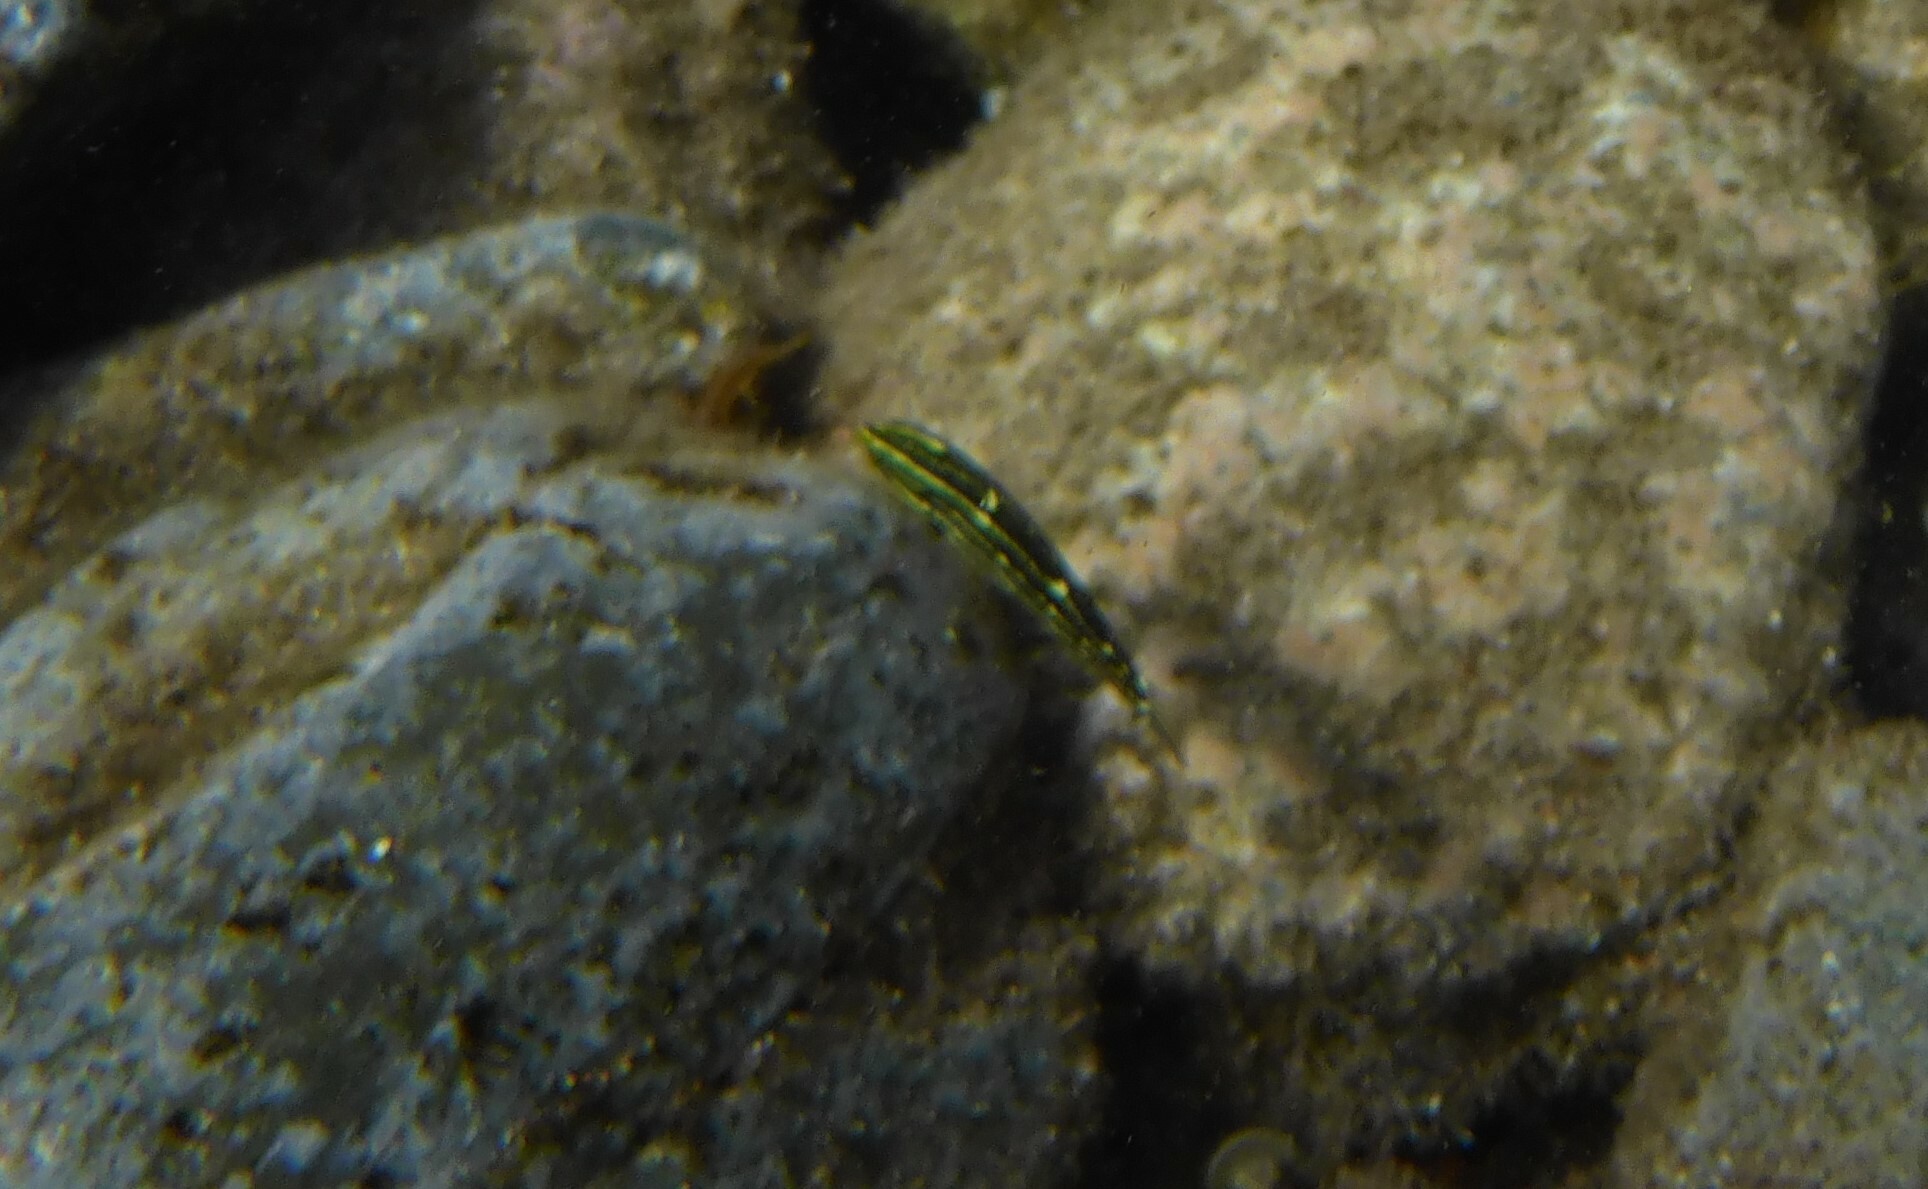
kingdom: Animalia
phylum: Chordata
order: Perciformes
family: Labridae
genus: Halichoeres
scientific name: Halichoeres marginatus
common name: Dusky wrasse
